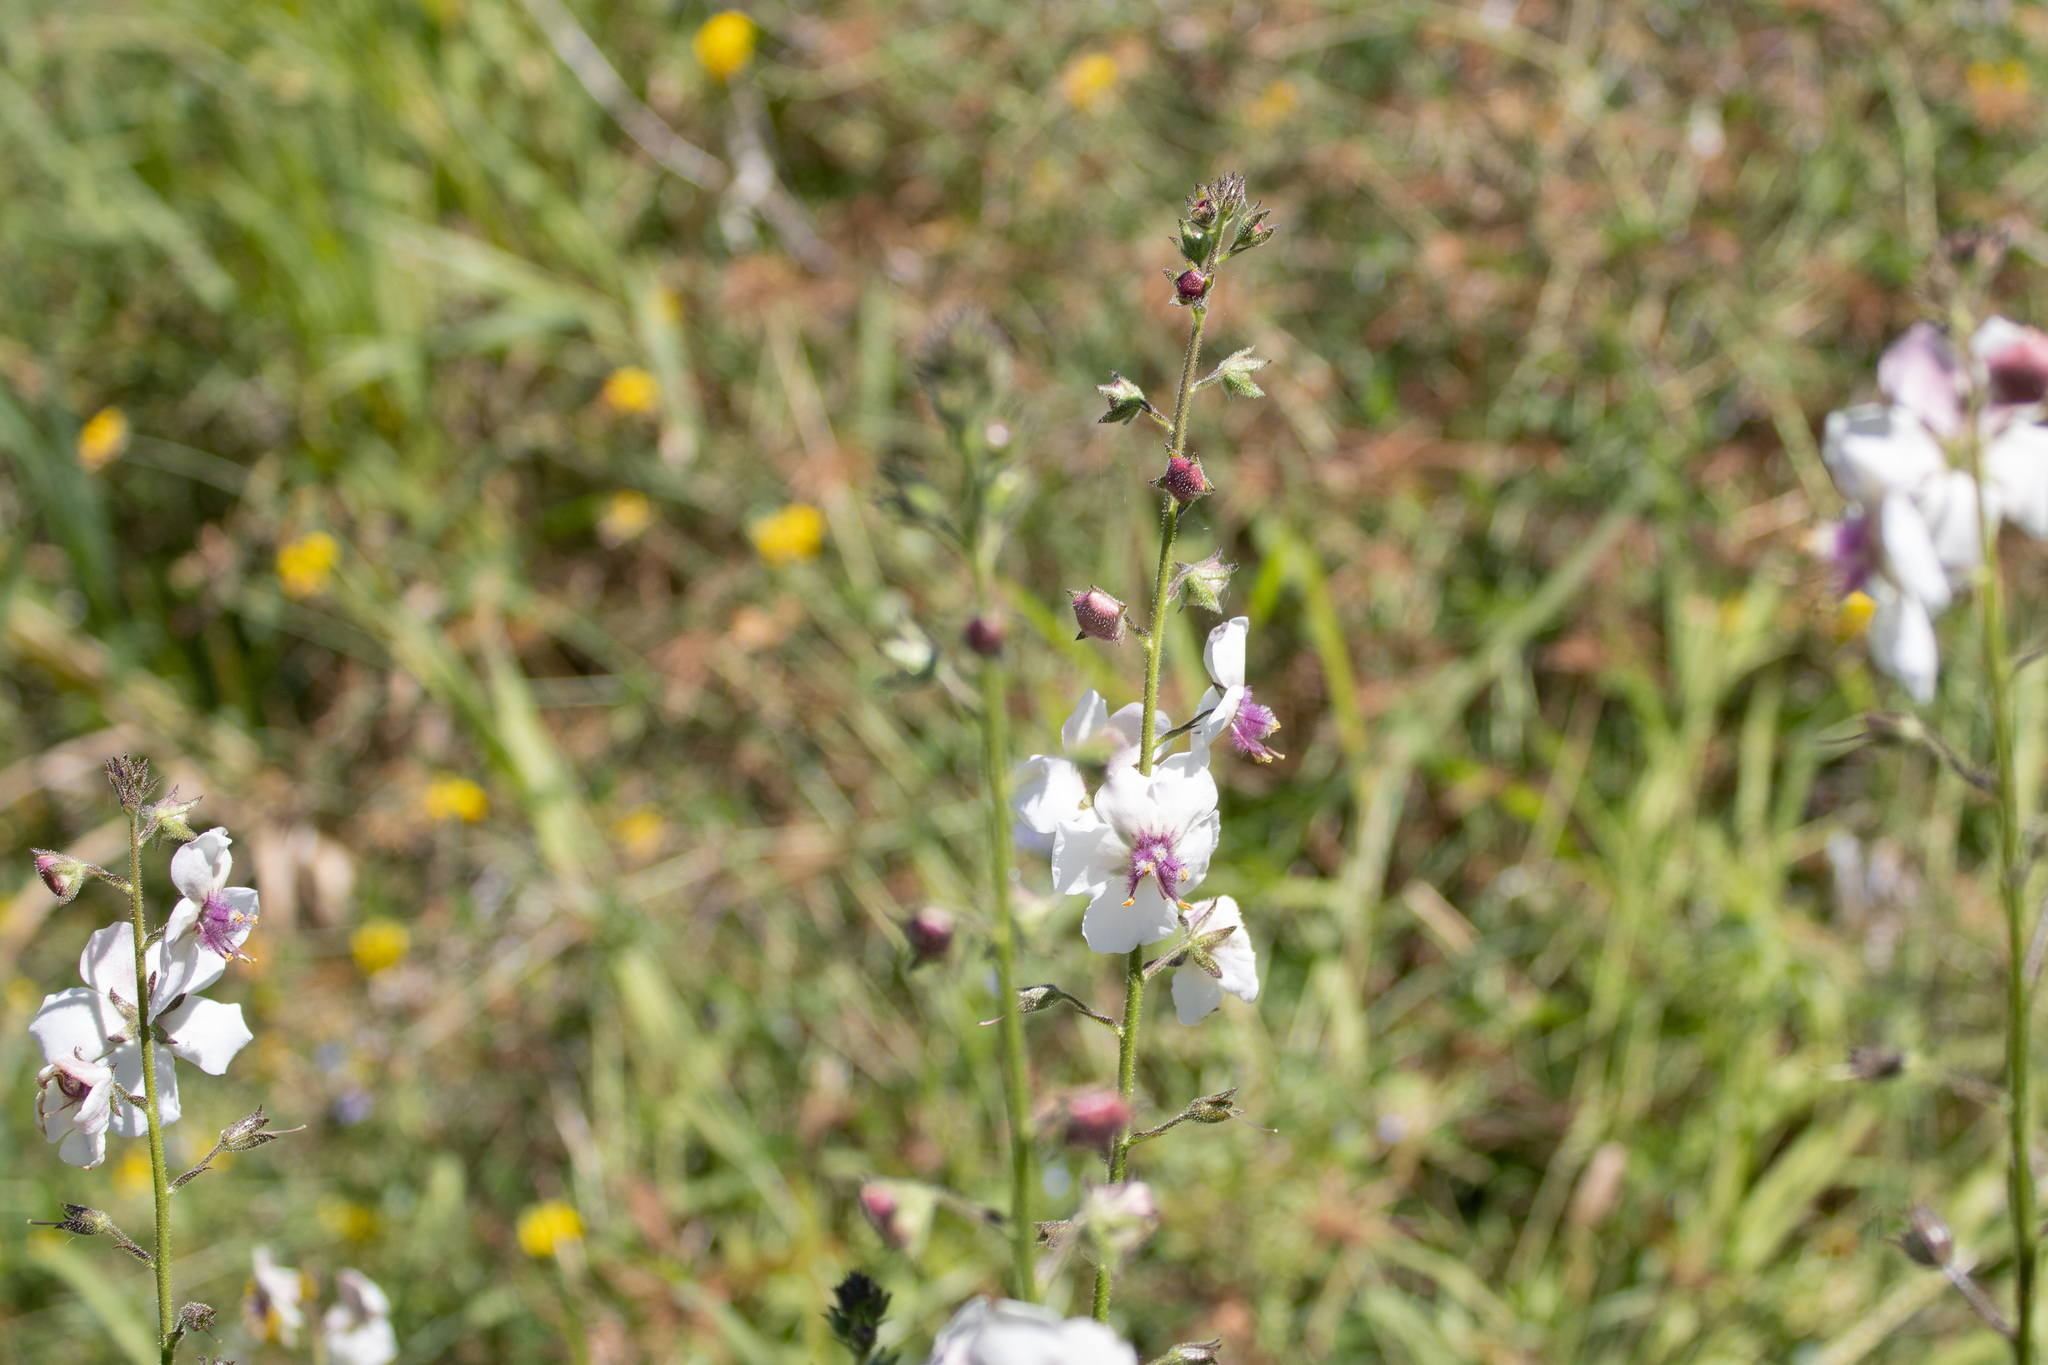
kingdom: Plantae
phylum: Tracheophyta
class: Magnoliopsida
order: Lamiales
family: Scrophulariaceae
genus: Verbascum
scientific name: Verbascum blattaria
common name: Moth mullein
